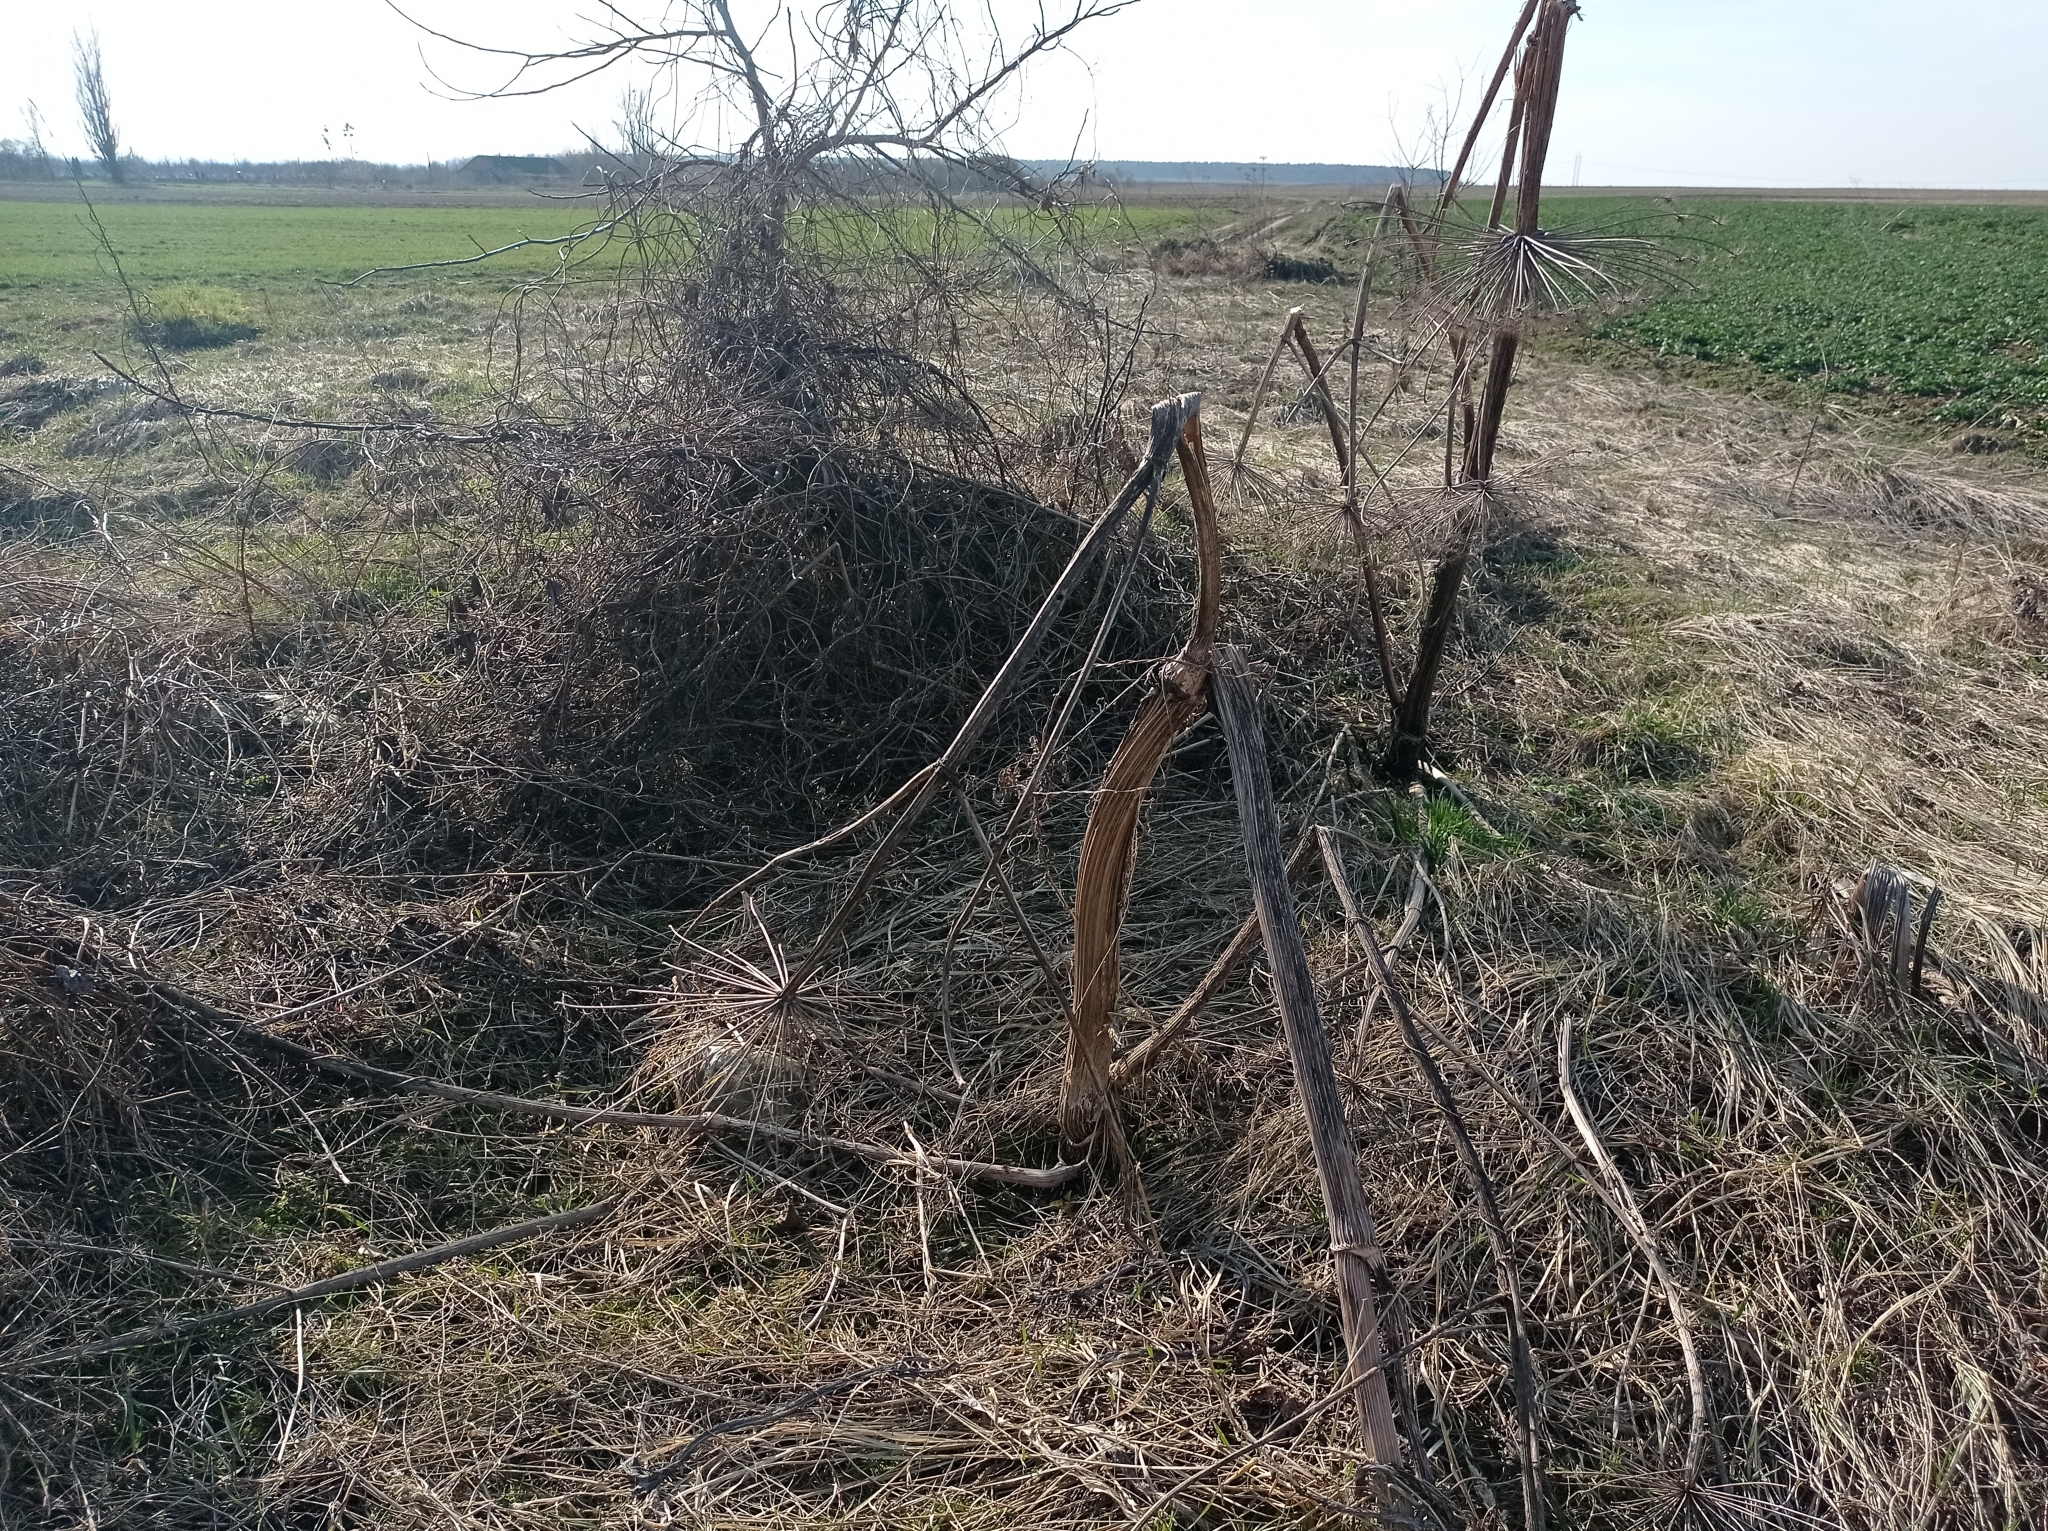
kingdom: Plantae
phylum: Tracheophyta
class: Magnoliopsida
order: Apiales
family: Apiaceae
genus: Heracleum
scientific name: Heracleum sosnowskyi
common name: Sosnowsky's hogweed
